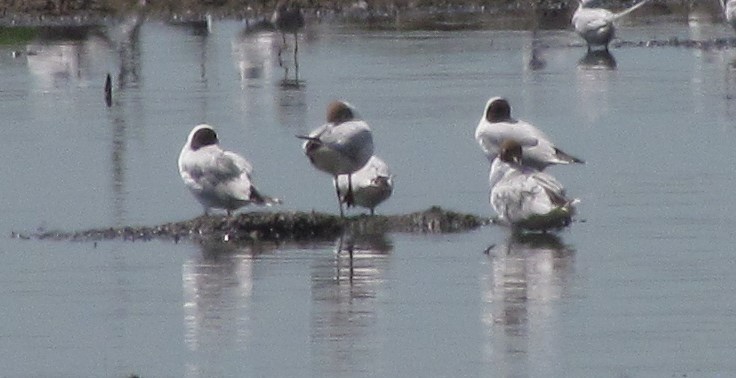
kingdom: Animalia
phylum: Chordata
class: Aves
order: Charadriiformes
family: Laridae
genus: Chroicocephalus
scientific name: Chroicocephalus maculipennis
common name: Brown-hooded gull
